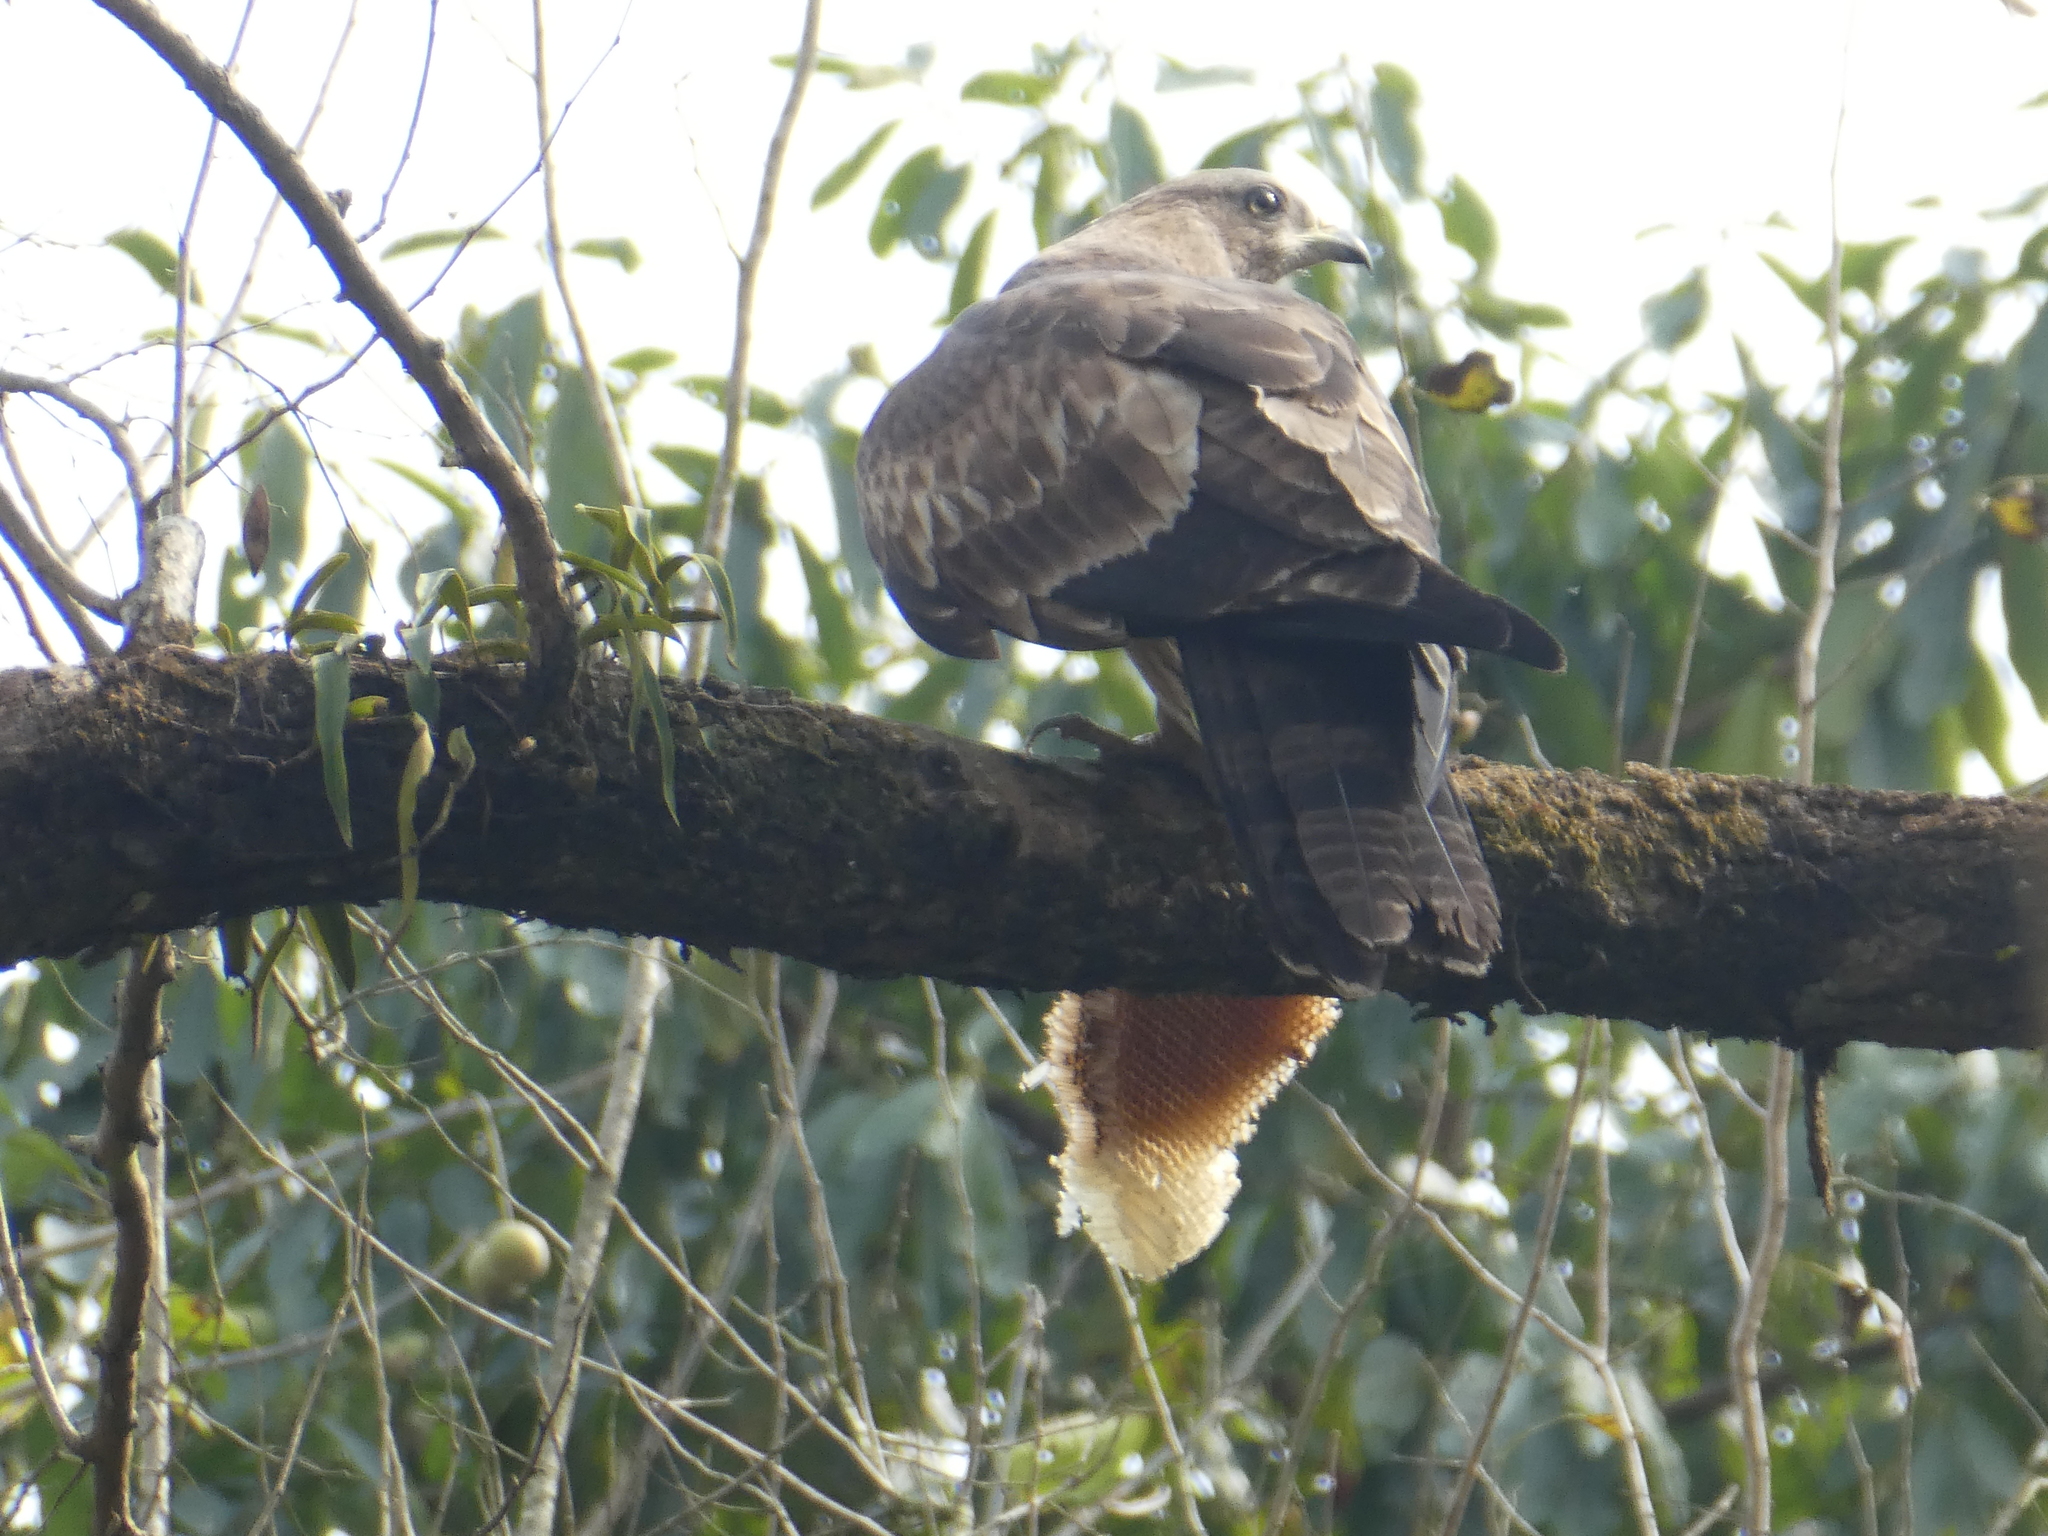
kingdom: Animalia
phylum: Chordata
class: Aves
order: Accipitriformes
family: Accipitridae
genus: Pernis
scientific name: Pernis ptilorhynchus
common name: Crested honey buzzard
